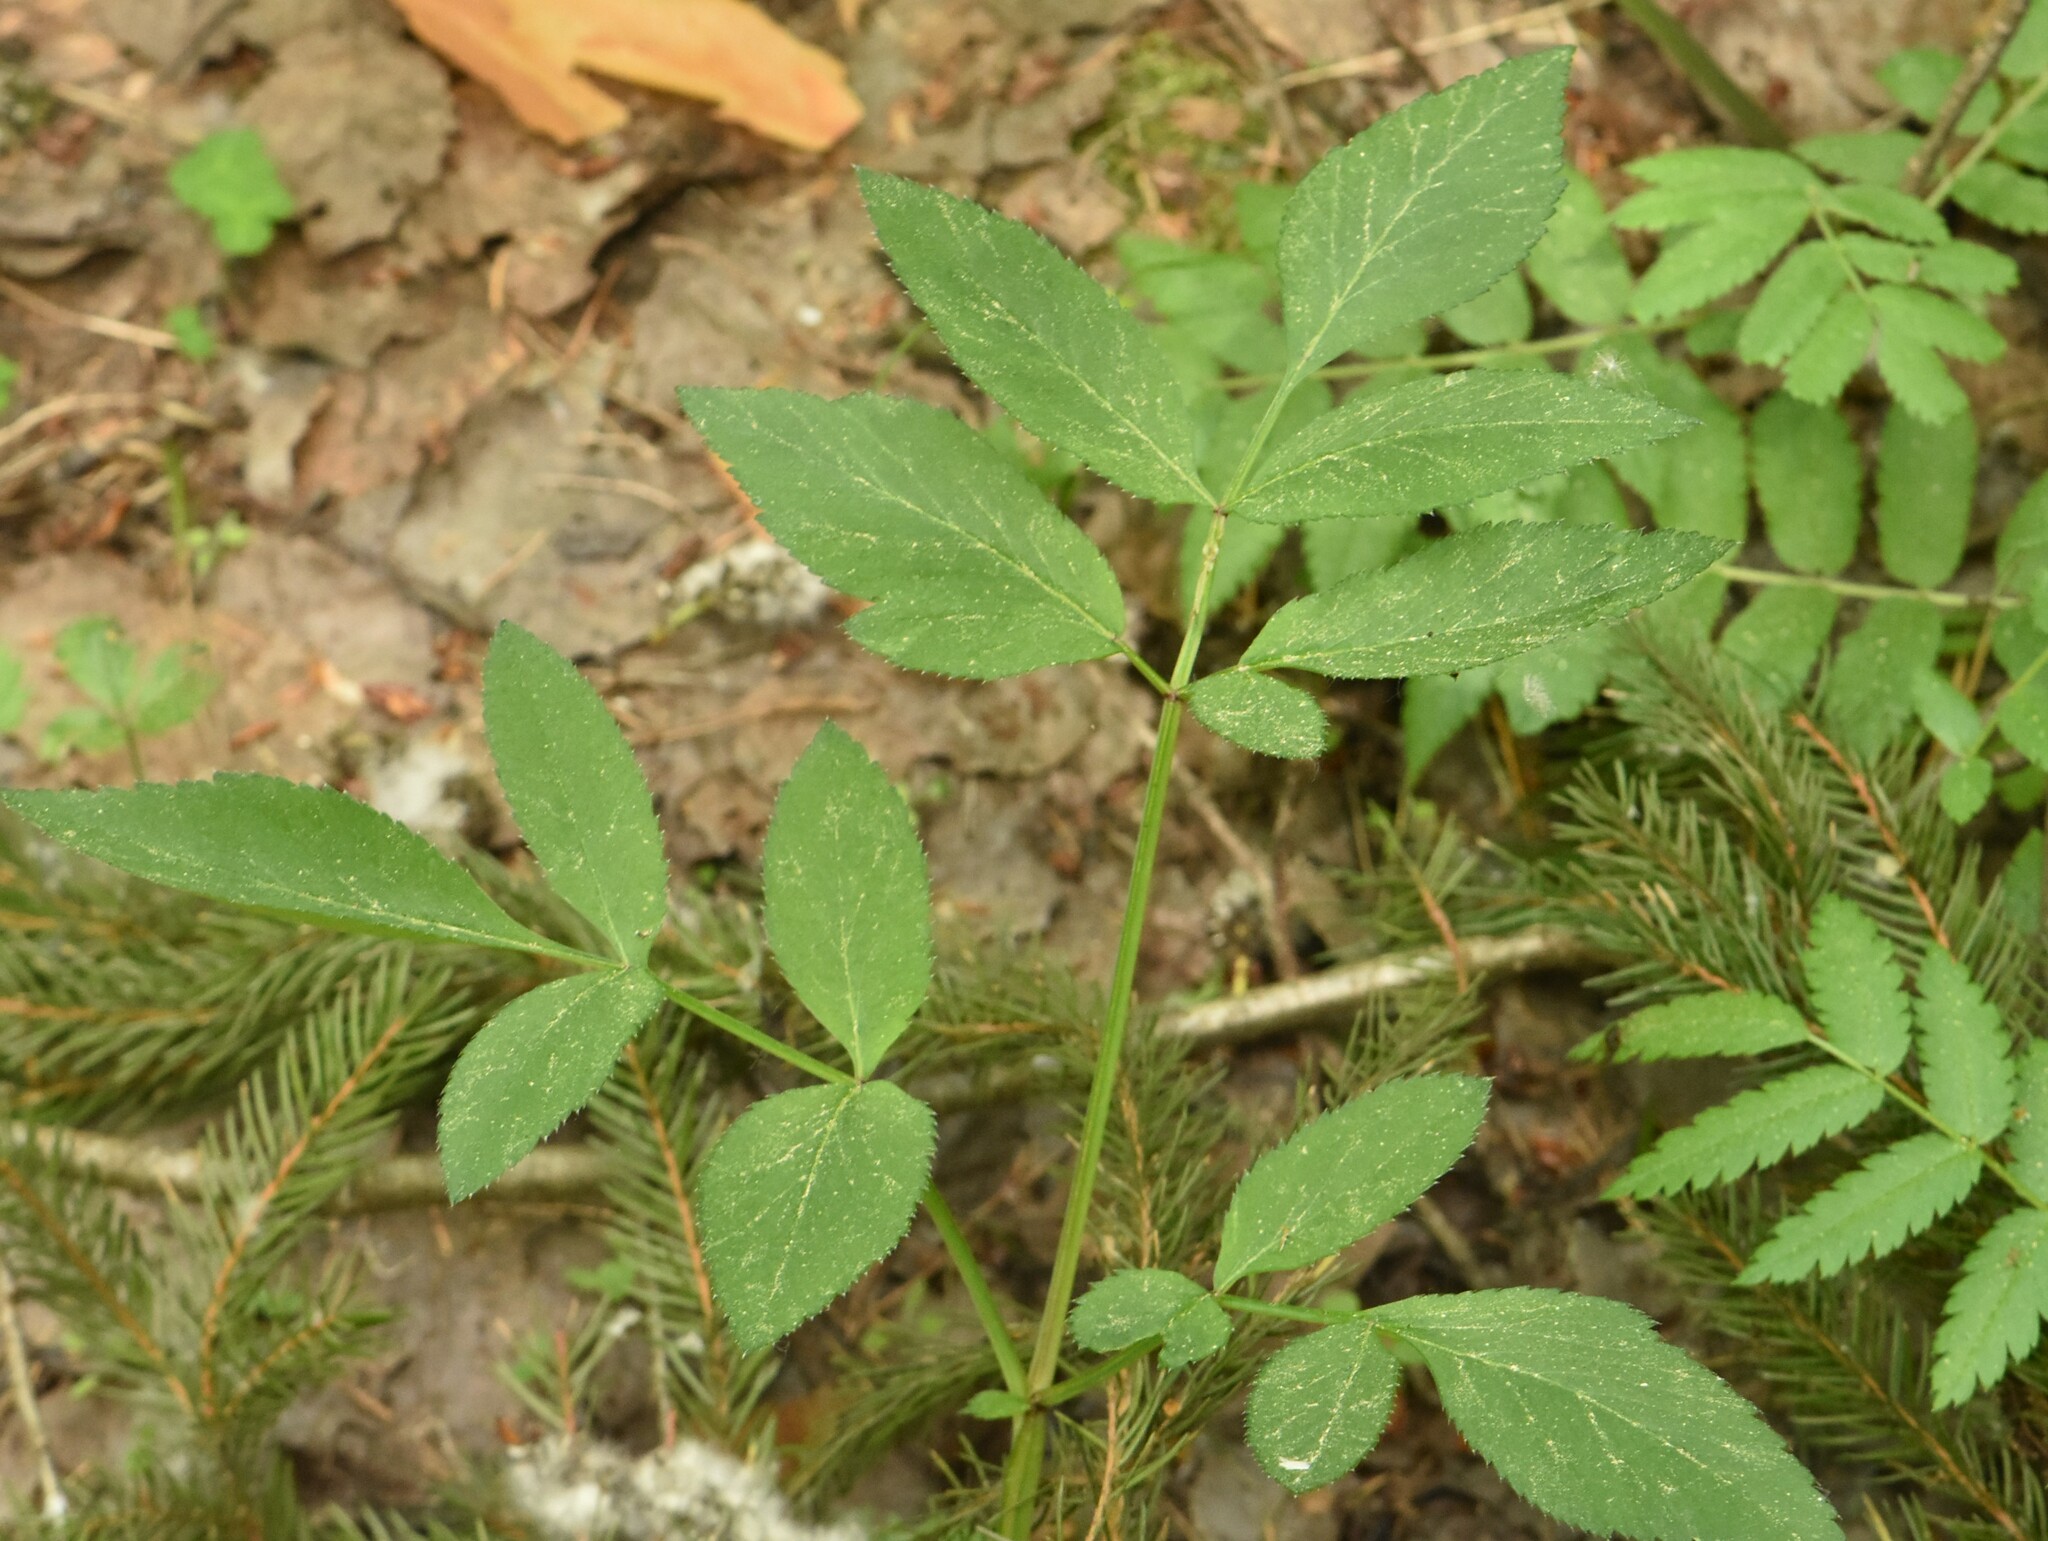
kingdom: Plantae
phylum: Tracheophyta
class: Magnoliopsida
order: Apiales
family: Apiaceae
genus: Angelica
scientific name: Angelica sylvestris
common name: Wild angelica
